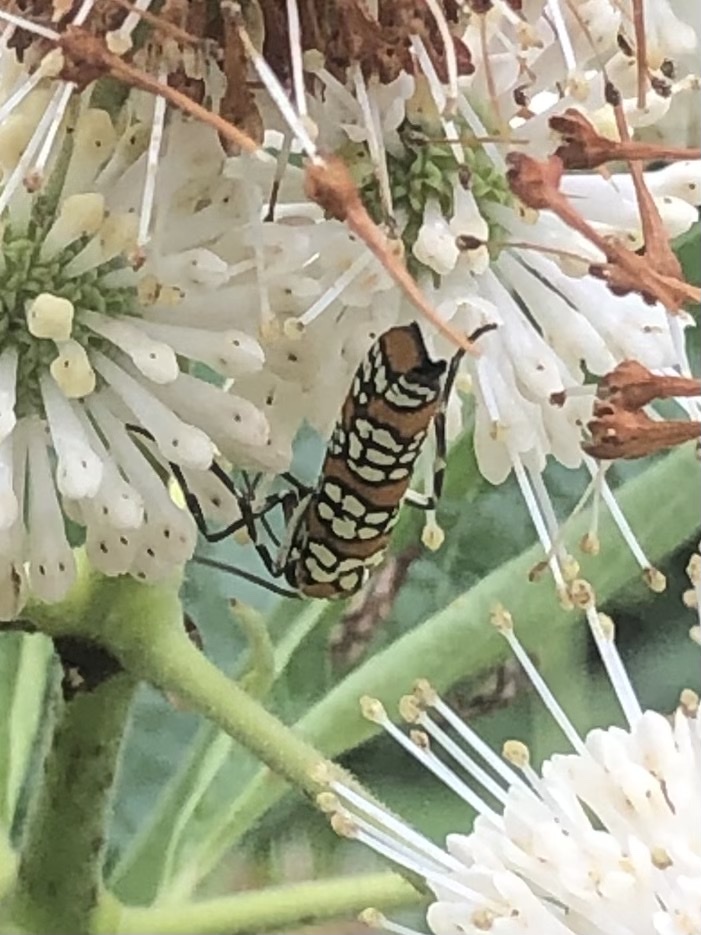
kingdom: Animalia
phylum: Arthropoda
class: Insecta
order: Lepidoptera
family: Attevidae
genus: Atteva
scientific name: Atteva punctella
